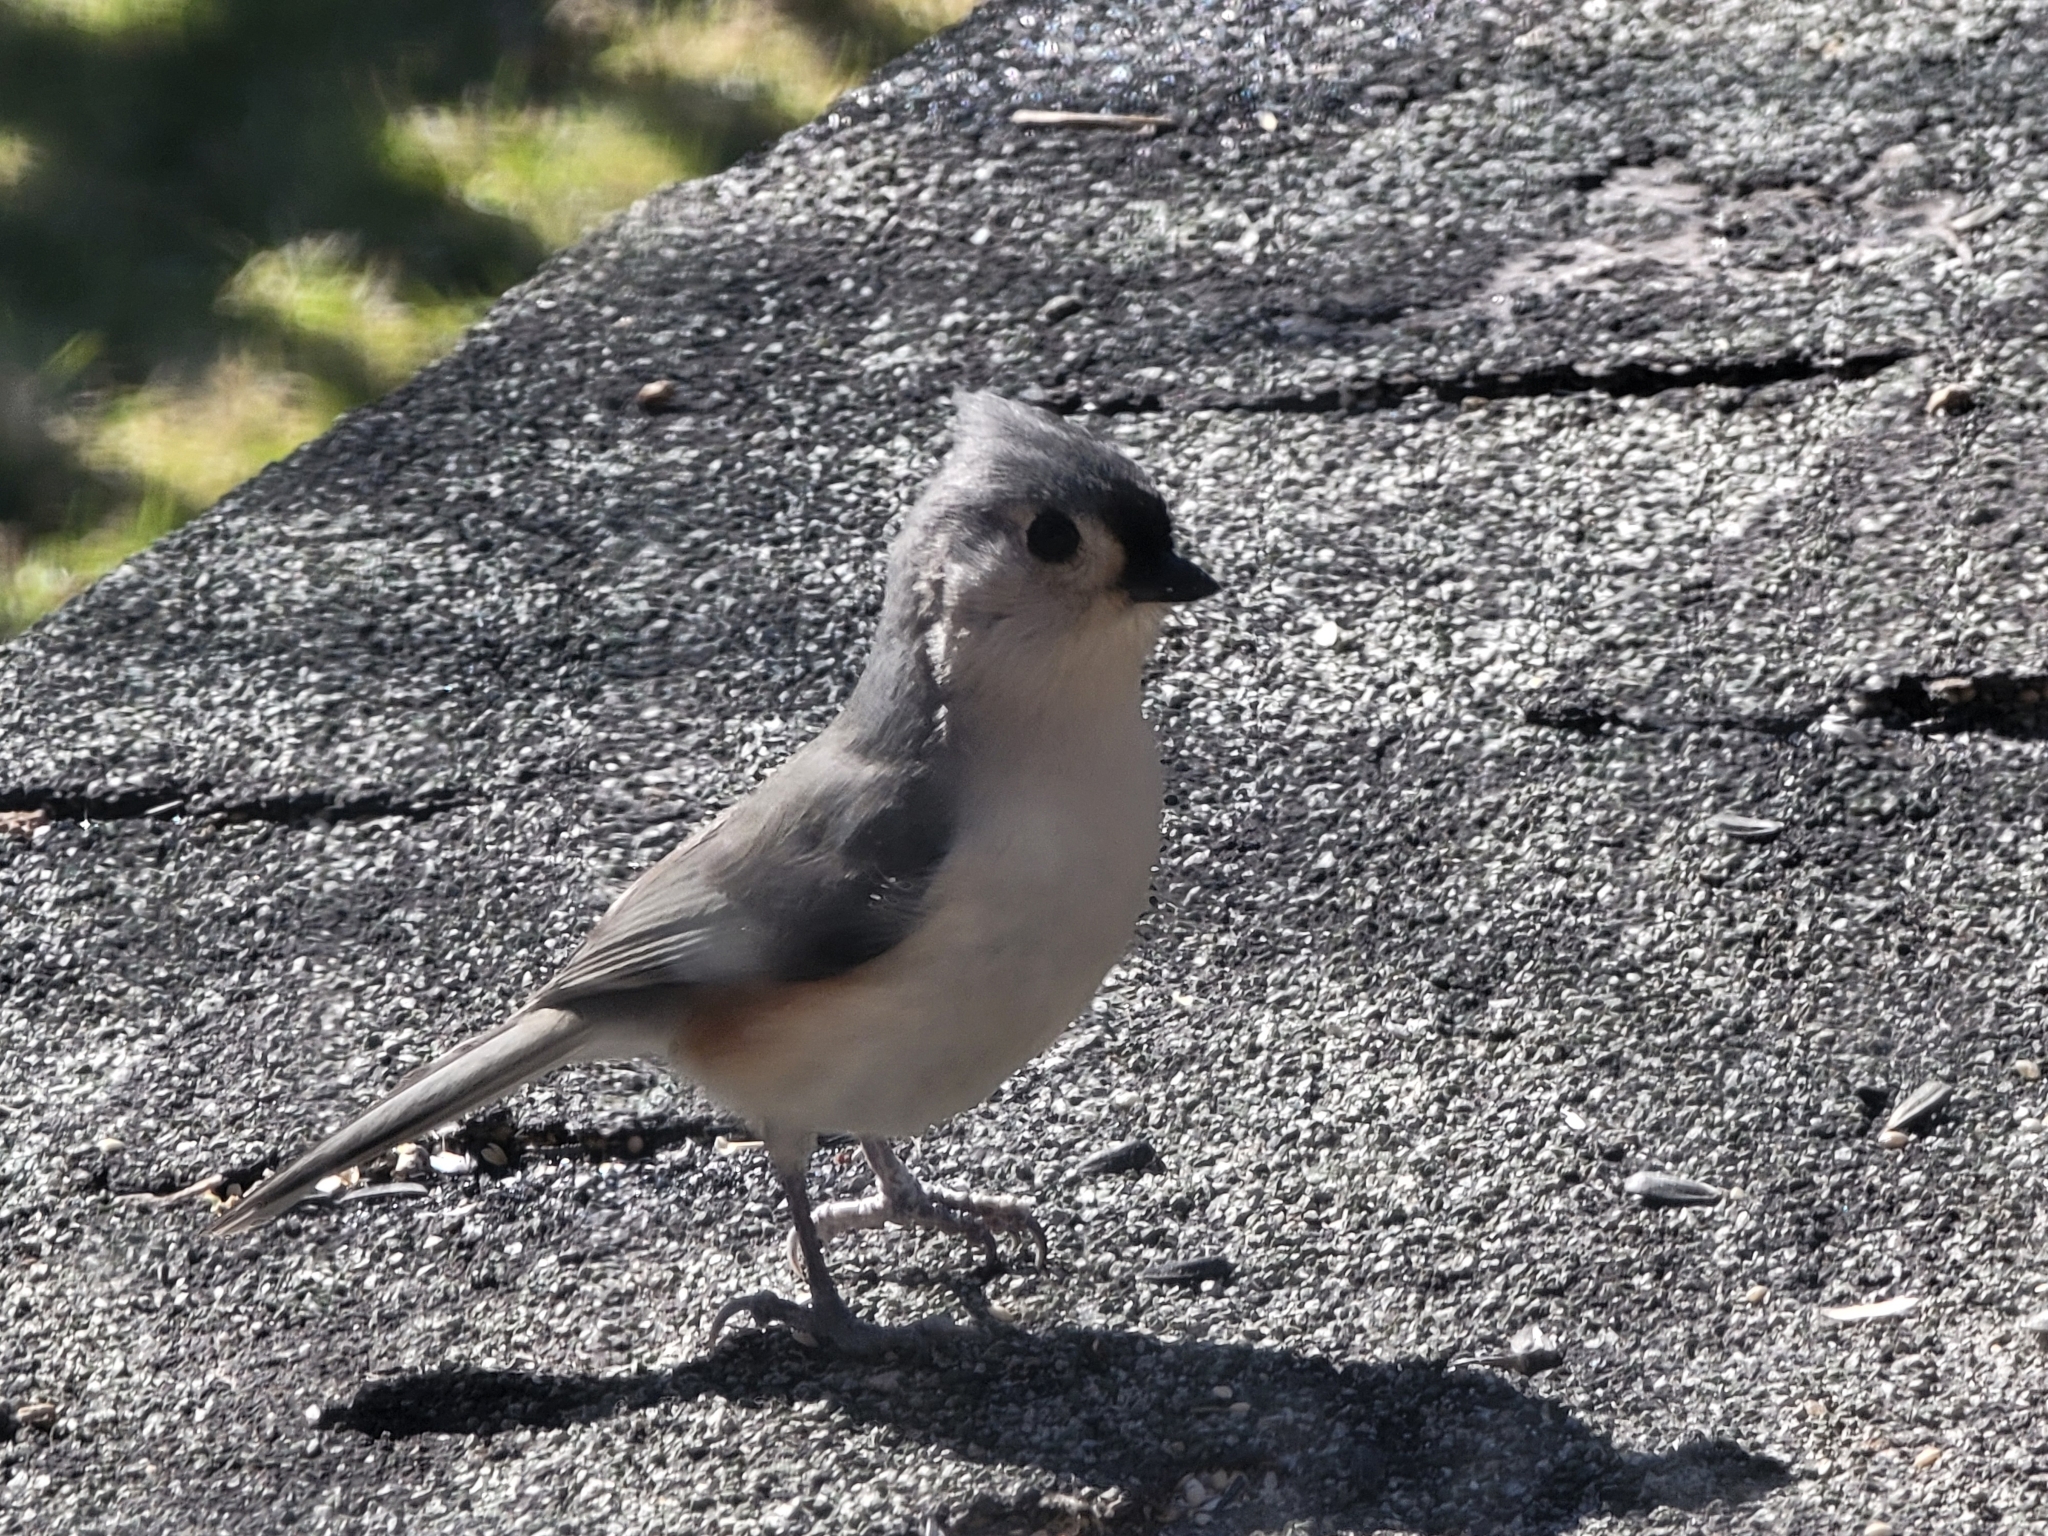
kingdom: Animalia
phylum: Chordata
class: Aves
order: Passeriformes
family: Paridae
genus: Baeolophus
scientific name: Baeolophus bicolor
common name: Tufted titmouse
